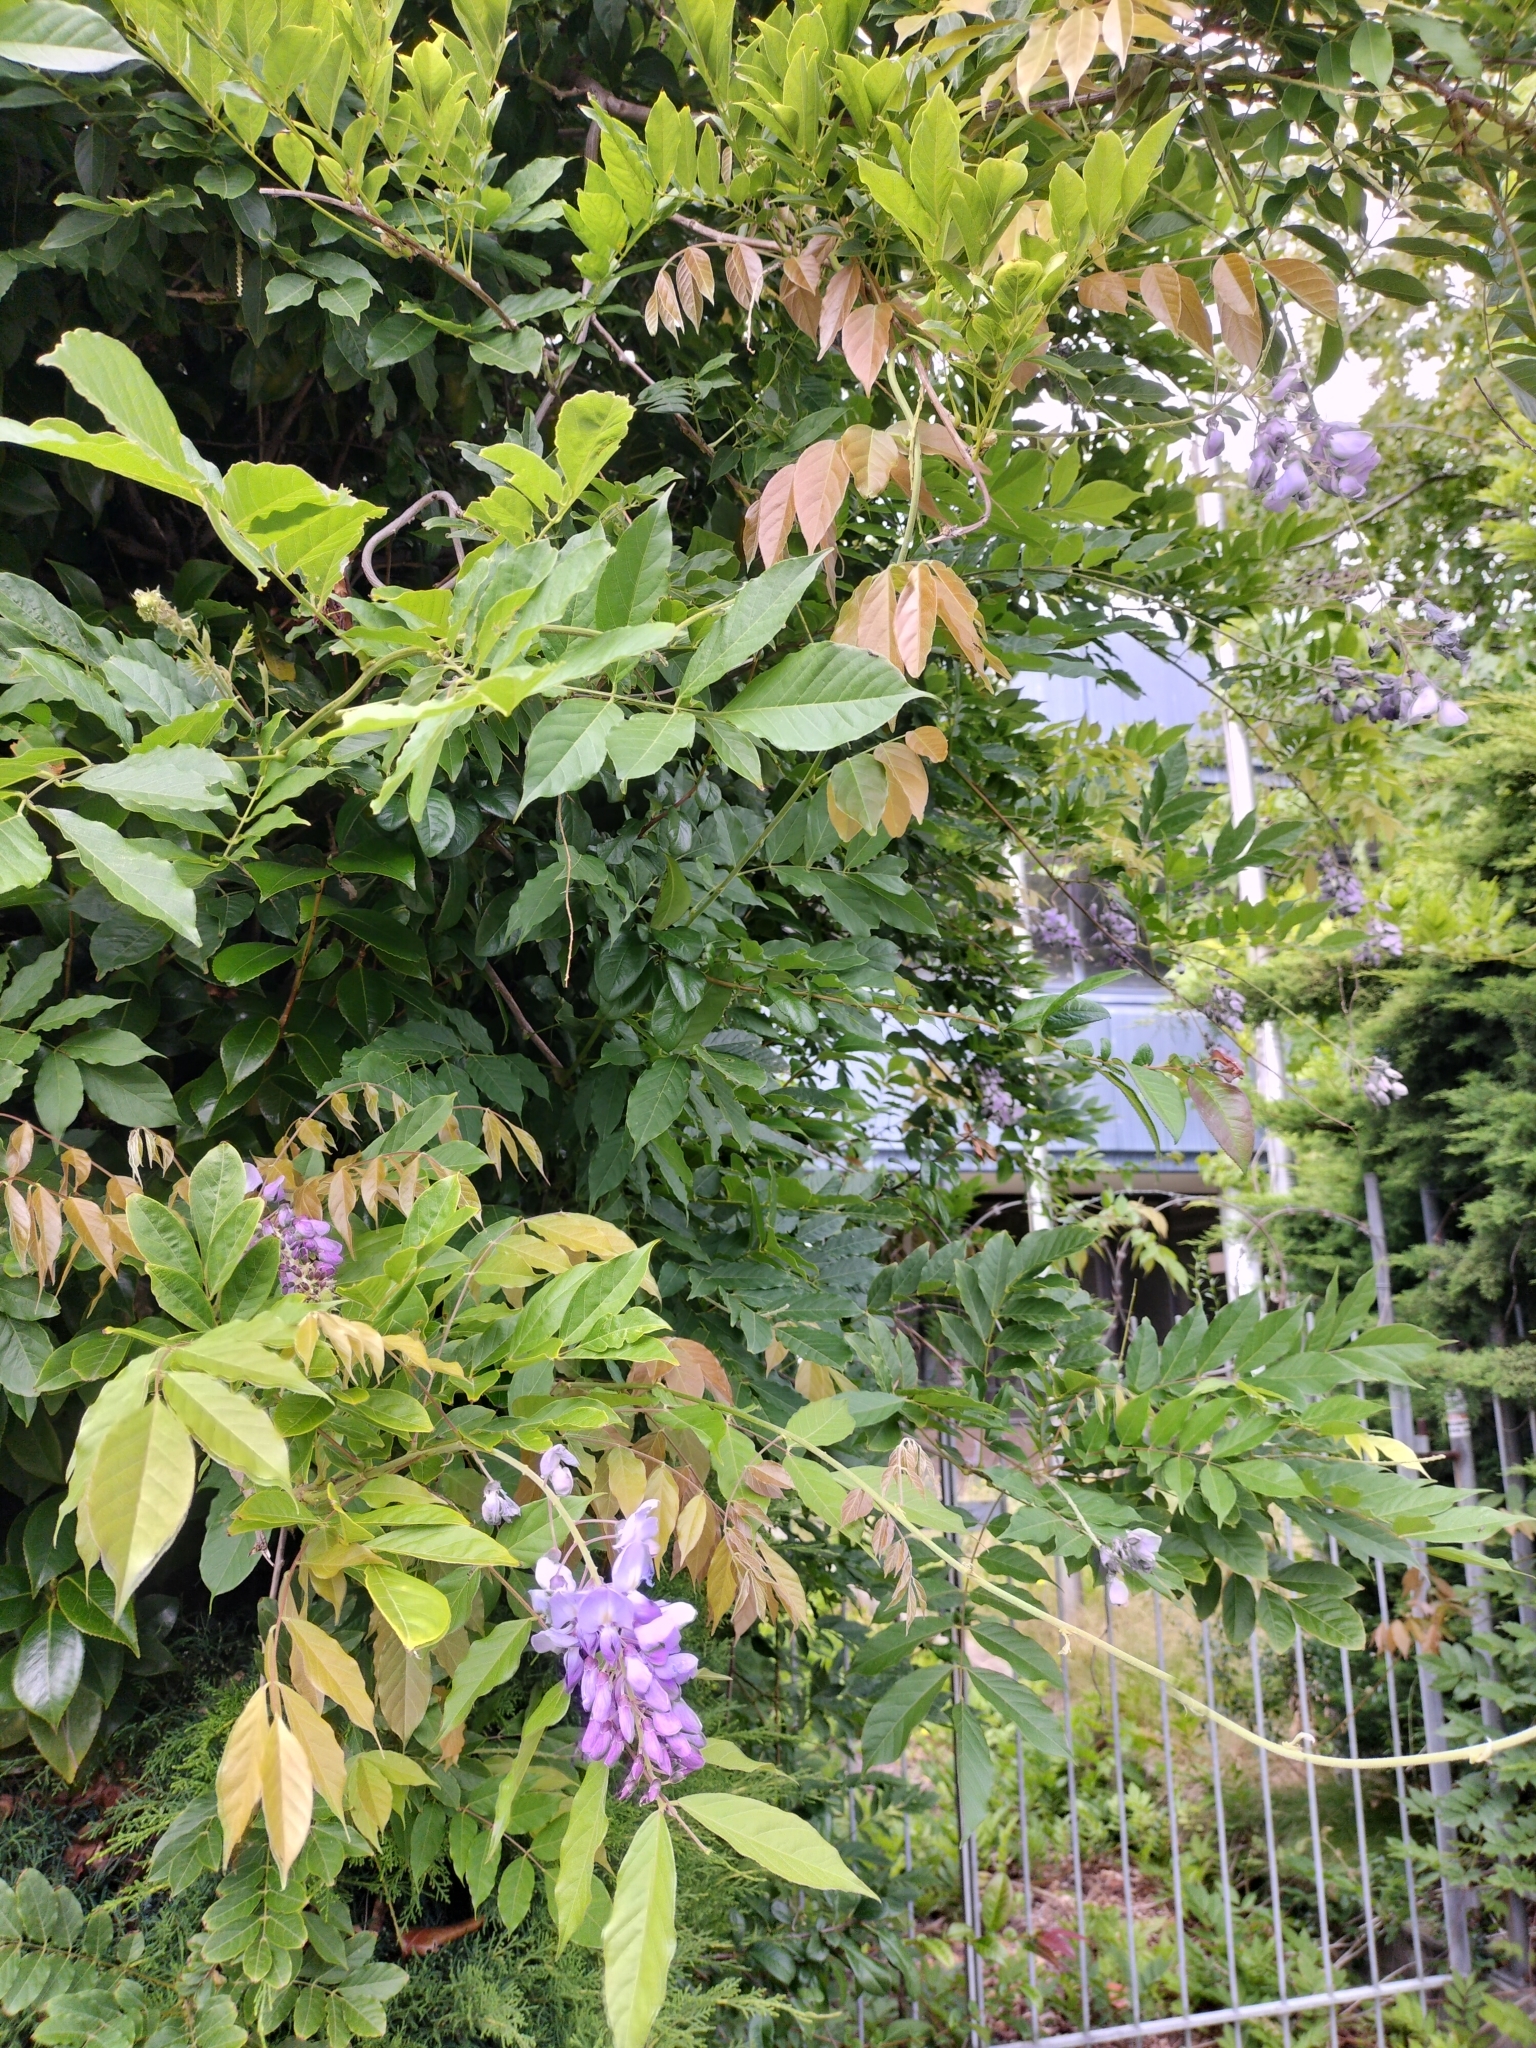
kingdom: Plantae
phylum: Tracheophyta
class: Magnoliopsida
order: Fabales
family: Fabaceae
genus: Wisteria
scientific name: Wisteria sinensis
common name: Chinese wisteria
